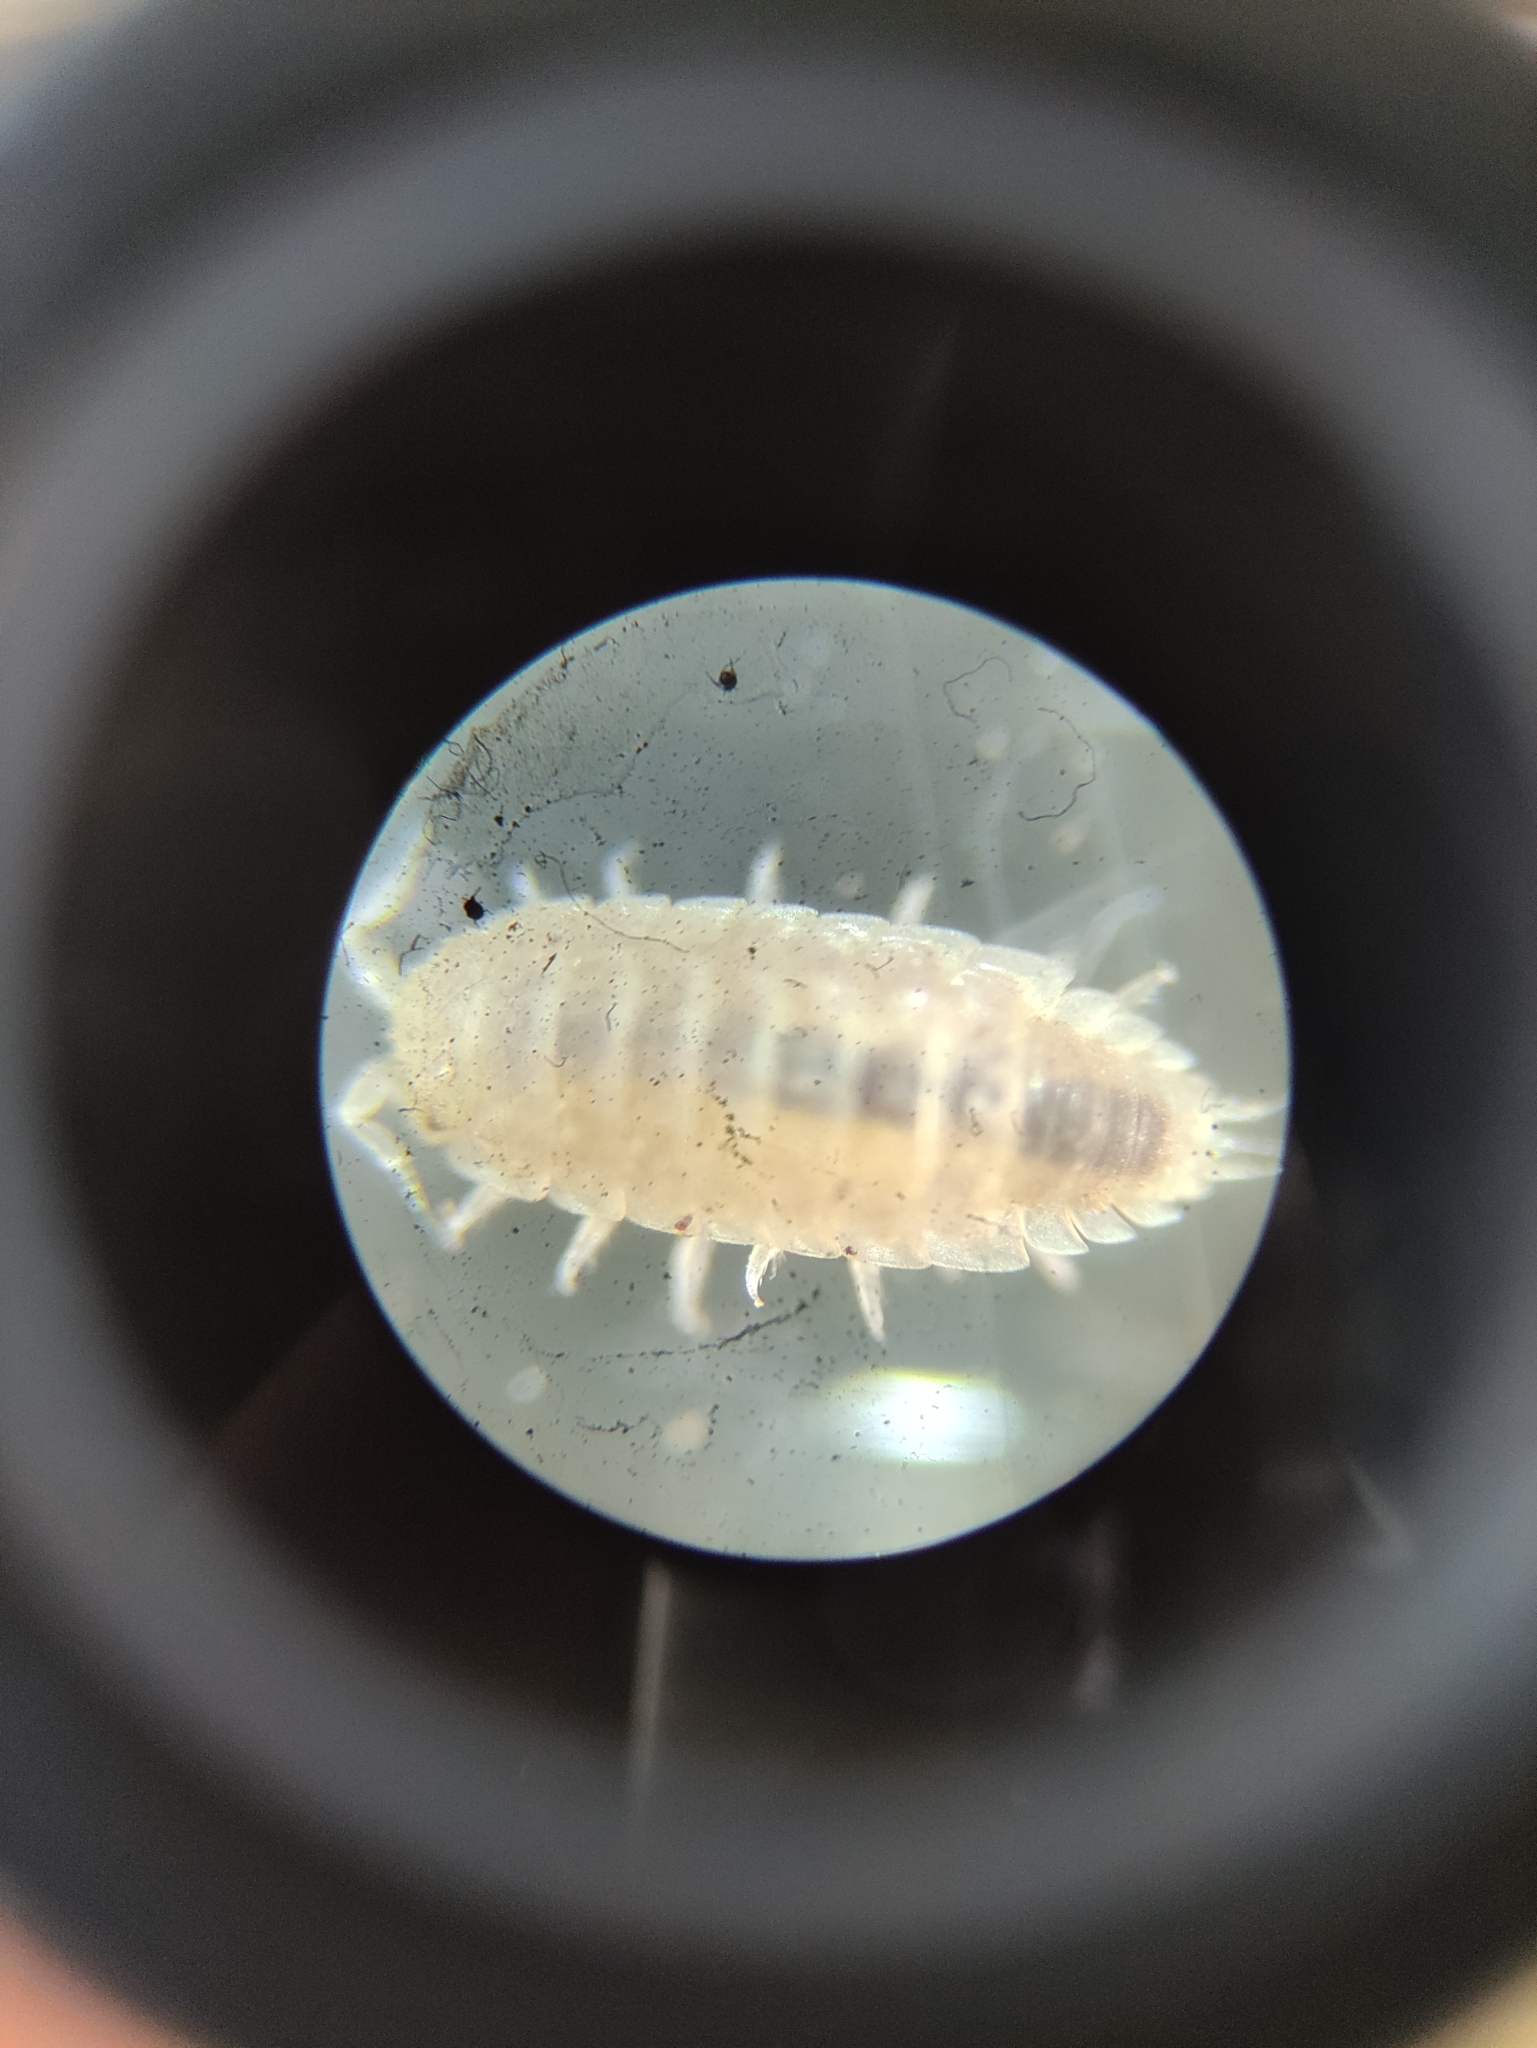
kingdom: Animalia
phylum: Arthropoda
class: Malacostraca
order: Isopoda
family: Trichoniscidae
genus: Haplophthalmus
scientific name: Haplophthalmus danicus
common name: Pillbug
